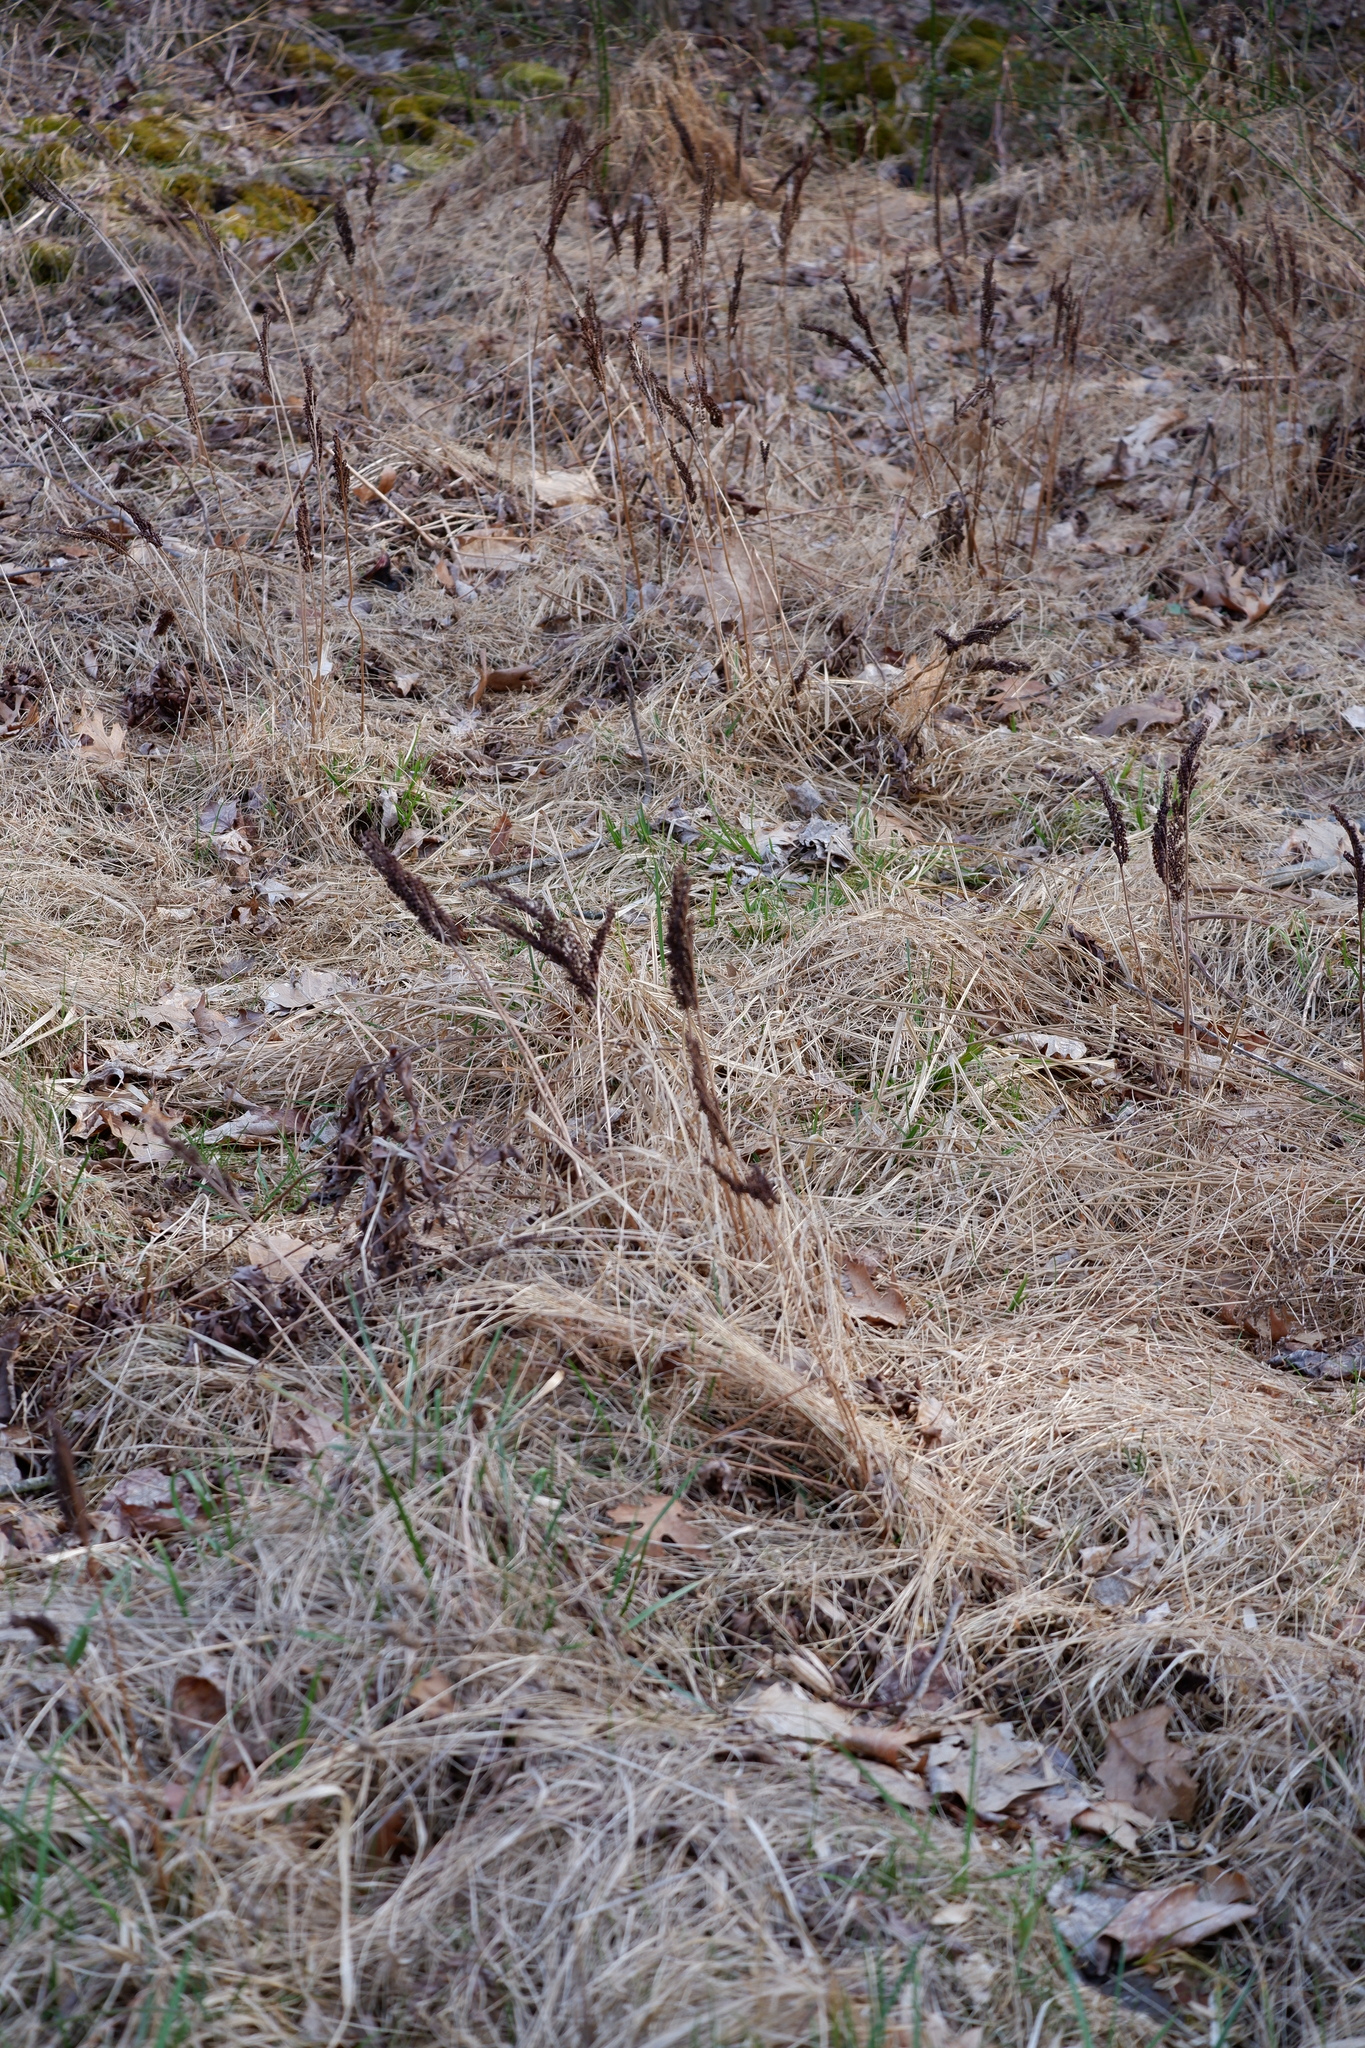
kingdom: Plantae
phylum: Tracheophyta
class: Polypodiopsida
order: Polypodiales
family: Onocleaceae
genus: Onoclea
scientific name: Onoclea sensibilis
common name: Sensitive fern
